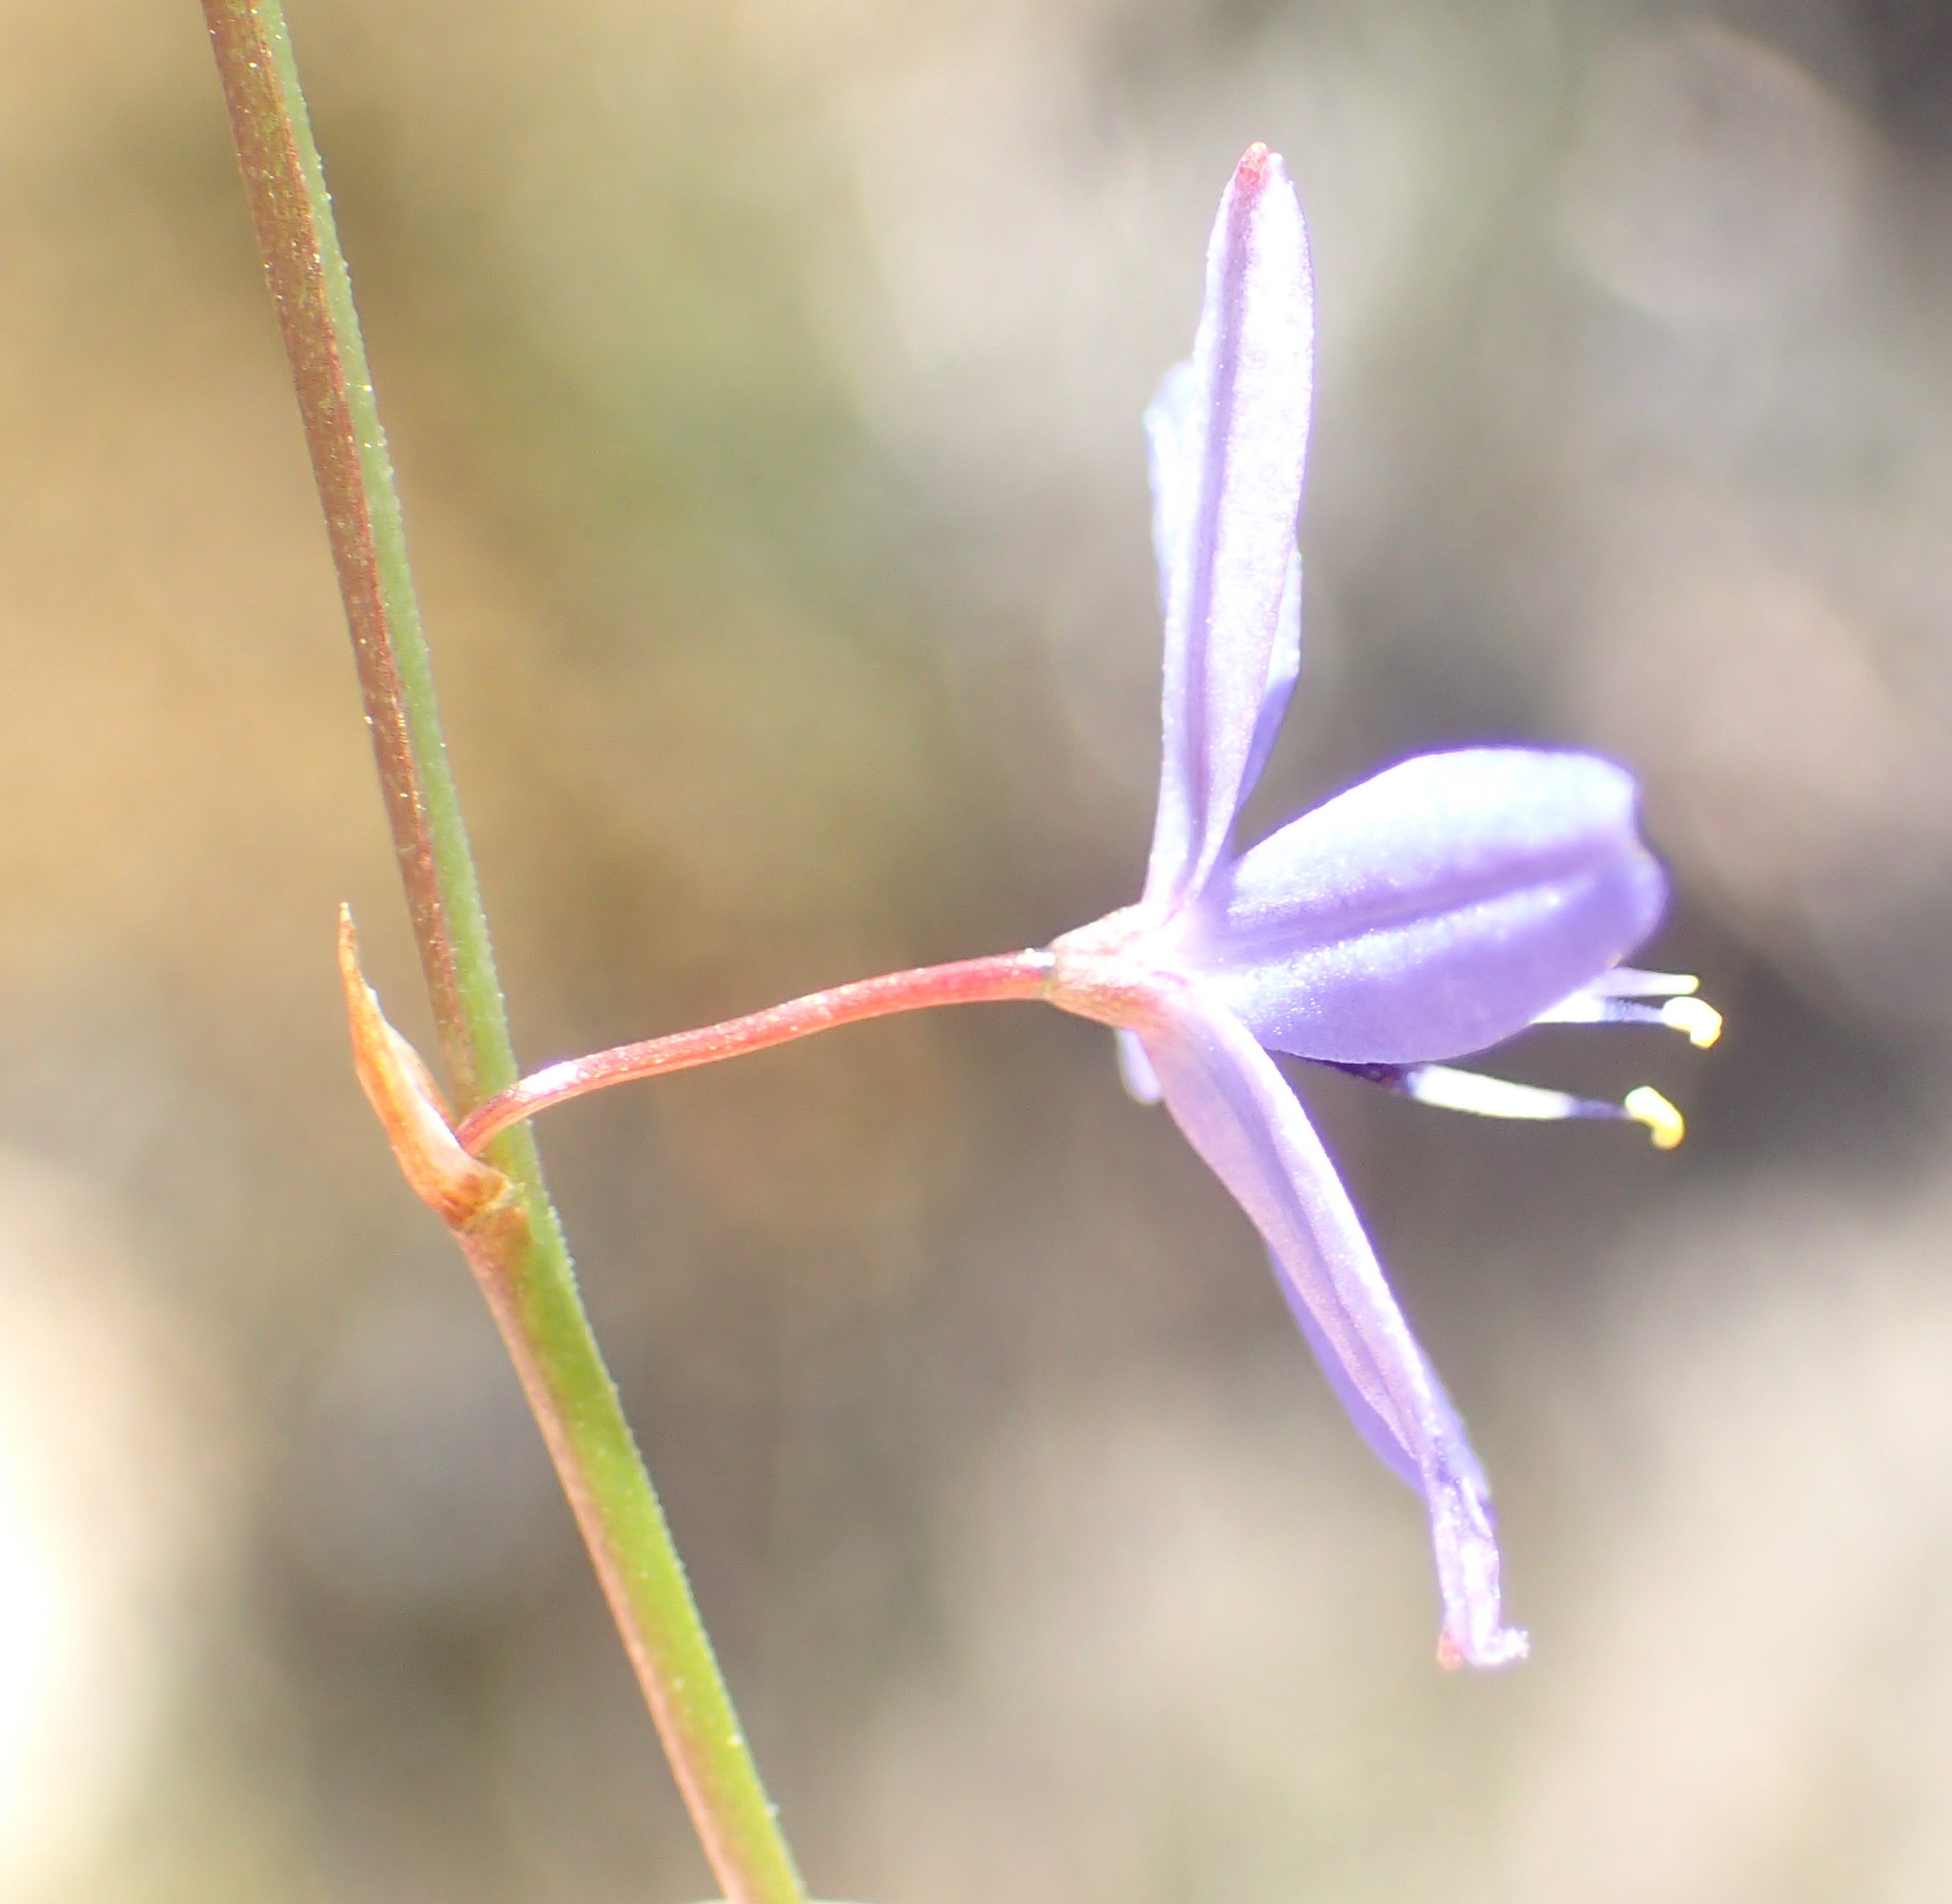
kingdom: Plantae
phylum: Tracheophyta
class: Liliopsida
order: Asparagales
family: Asphodelaceae
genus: Caesia
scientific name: Caesia contorta
